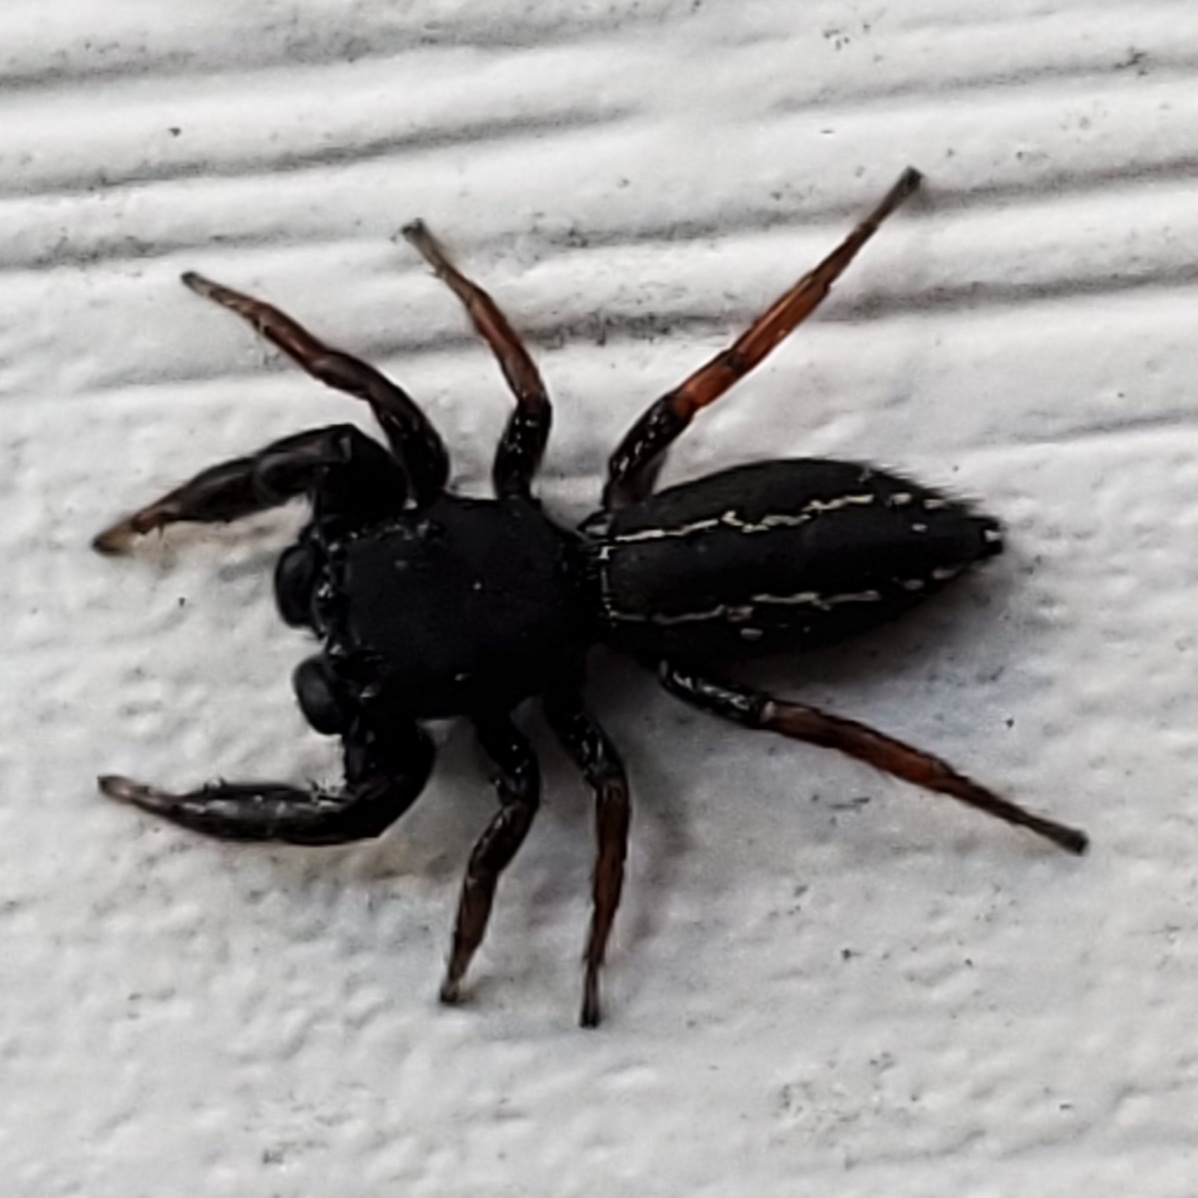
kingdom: Animalia
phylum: Arthropoda
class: Arachnida
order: Araneae
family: Salticidae
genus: Metacyrba
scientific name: Metacyrba taeniola
